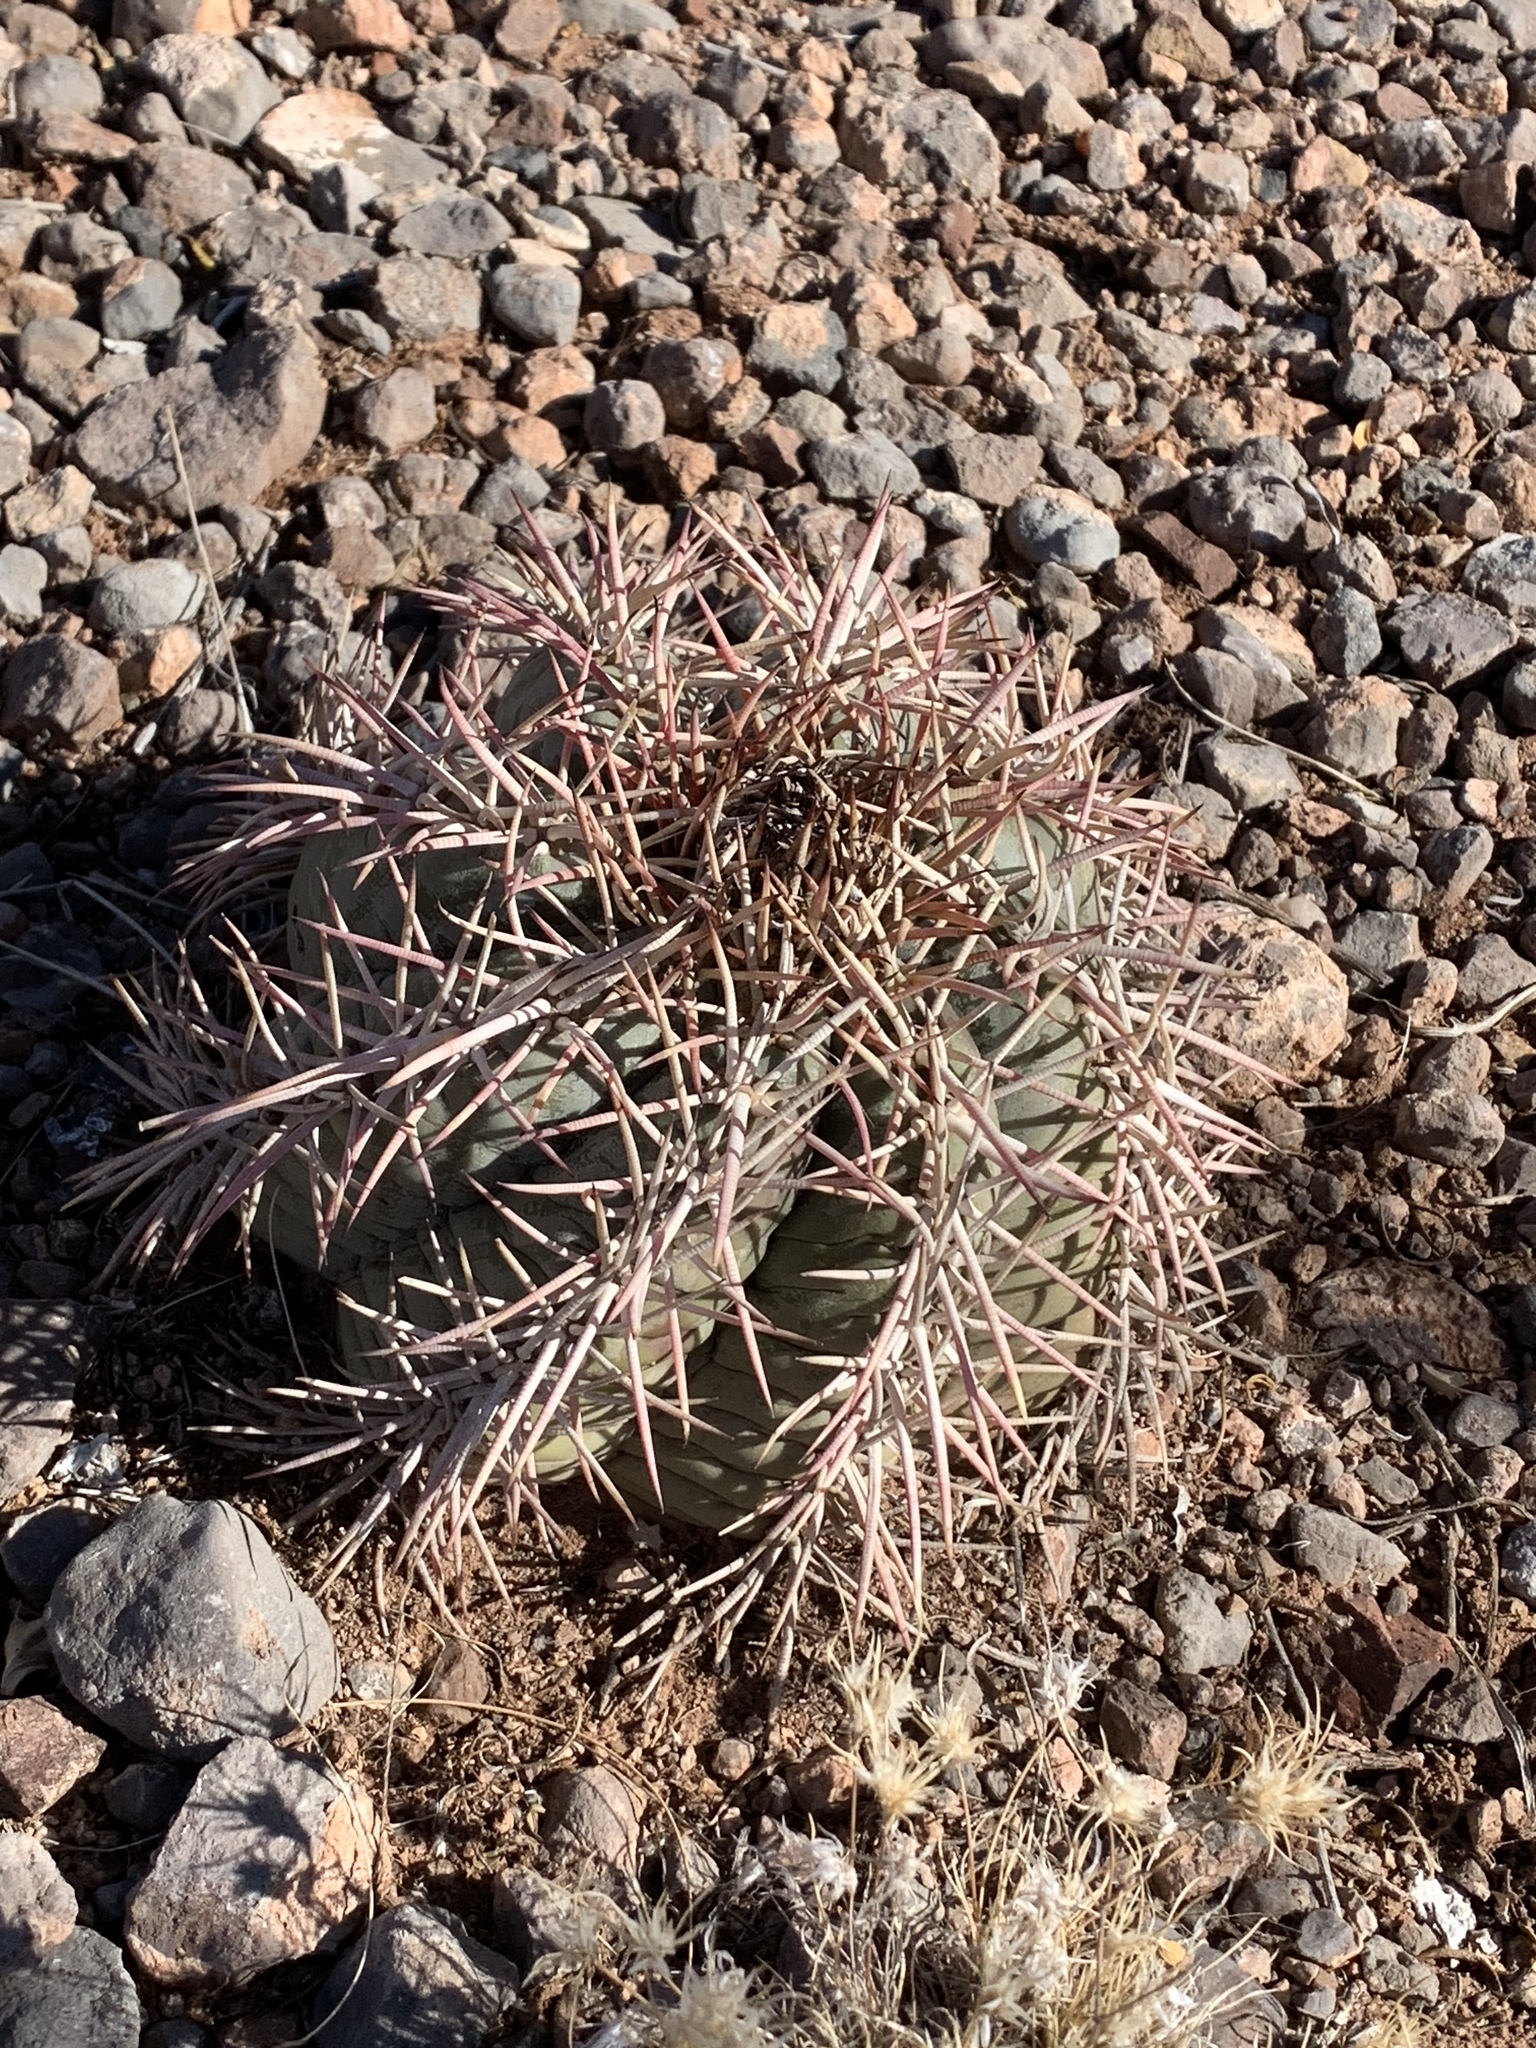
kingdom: Plantae
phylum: Tracheophyta
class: Magnoliopsida
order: Caryophyllales
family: Cactaceae
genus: Echinocactus
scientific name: Echinocactus horizonthalonius
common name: Devilshead
